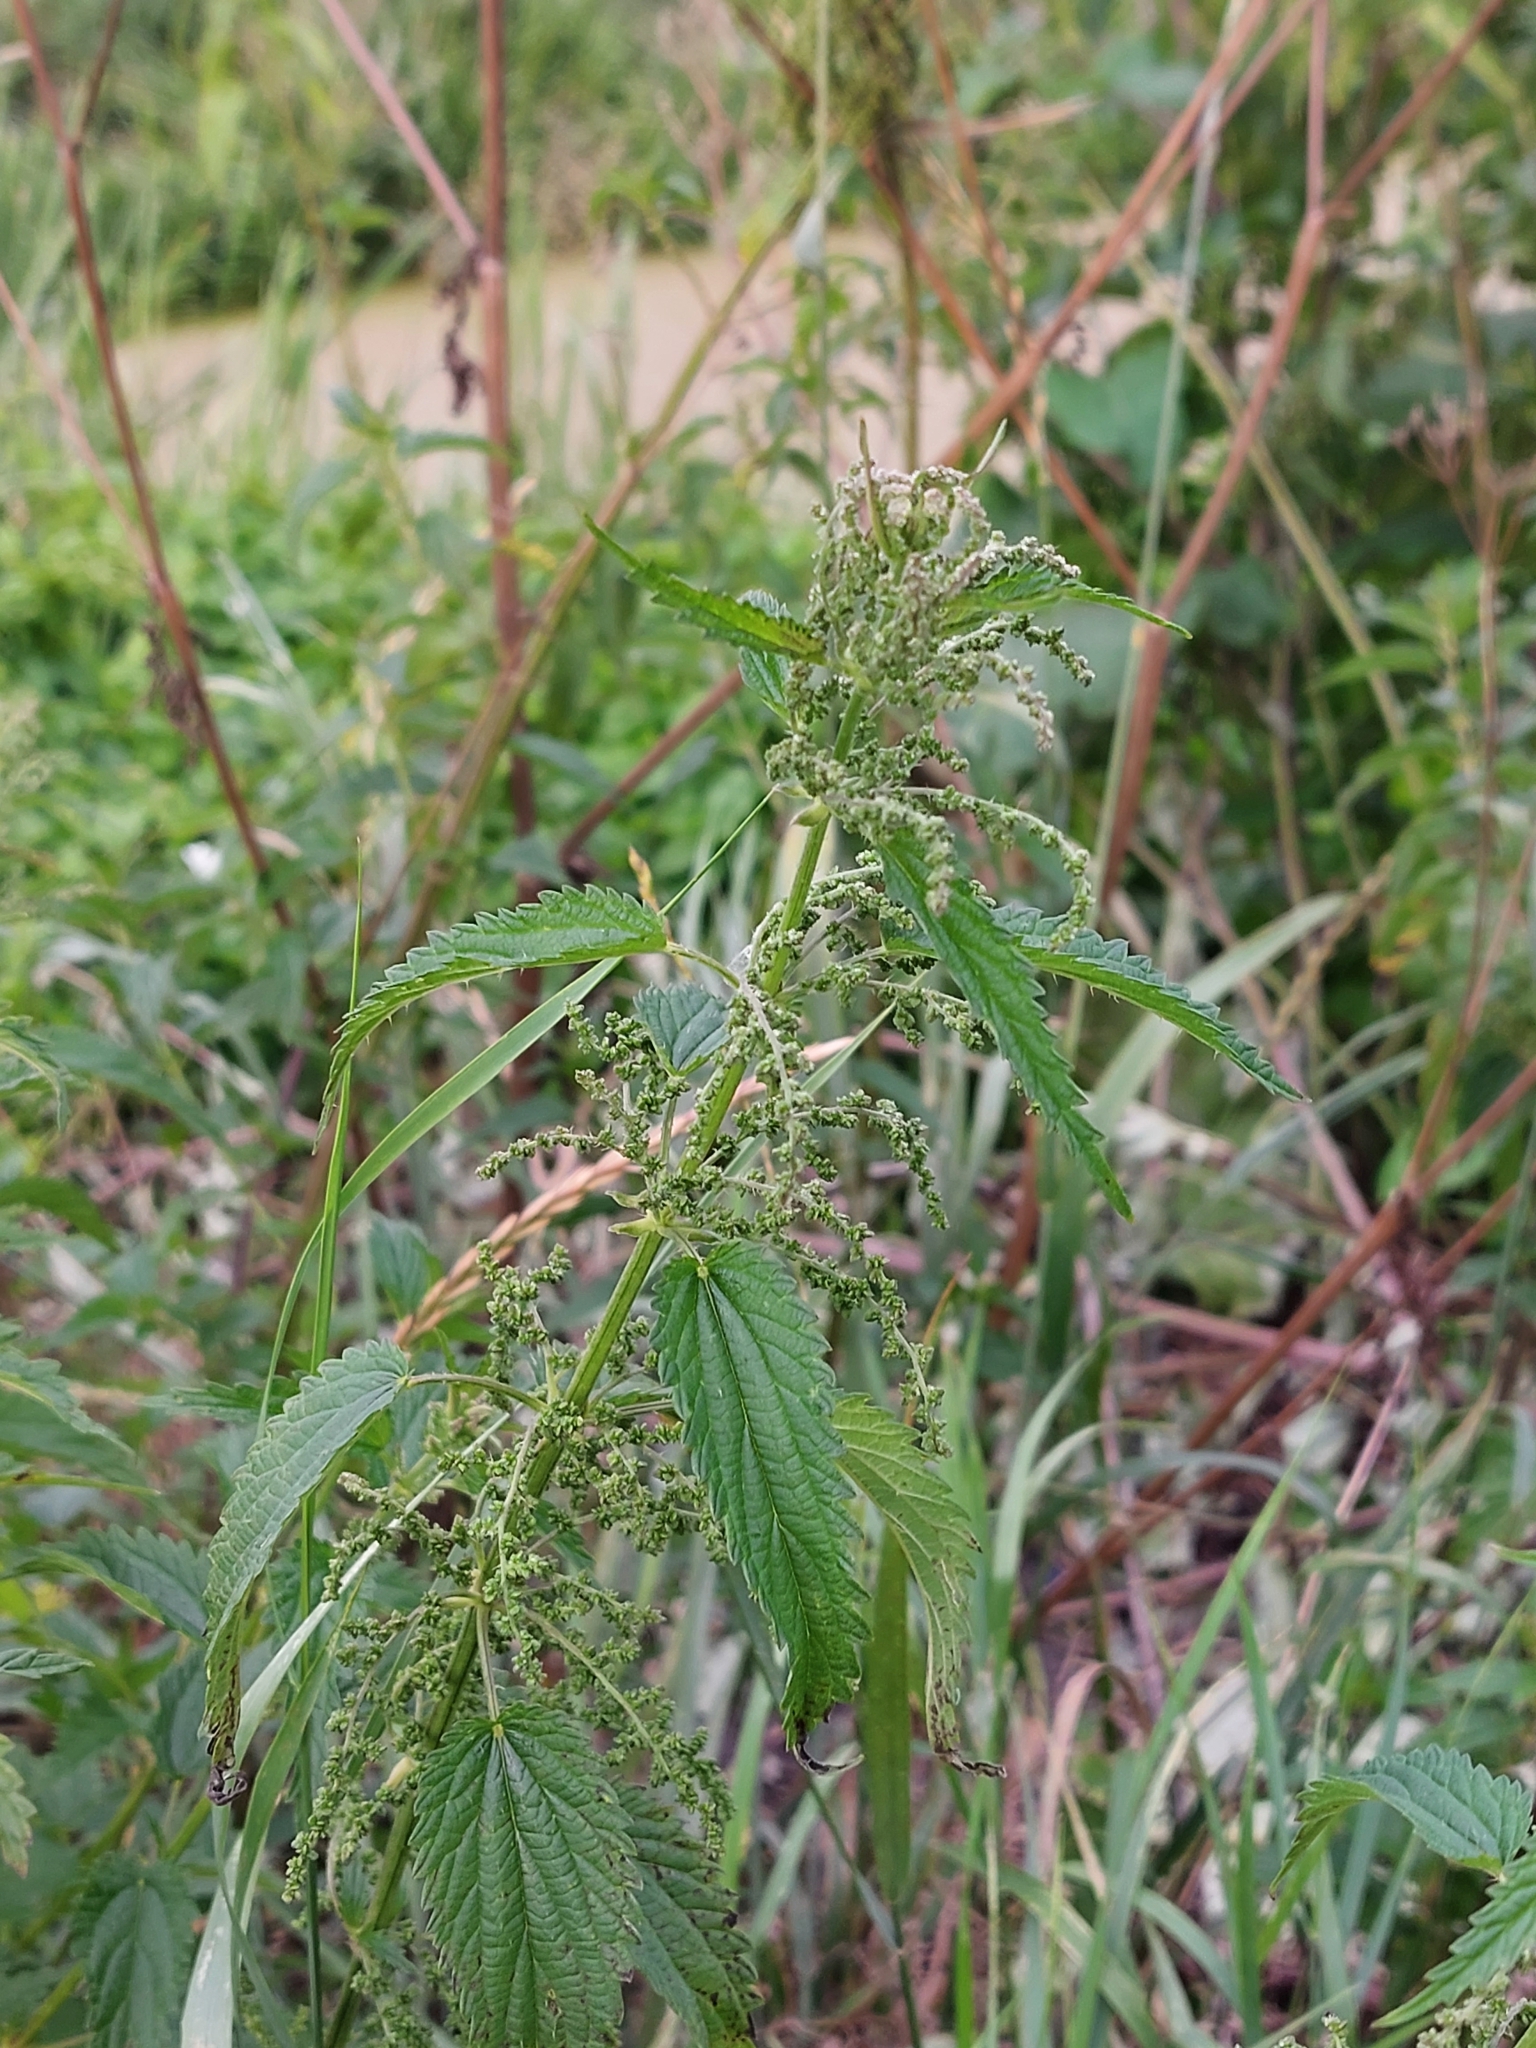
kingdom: Plantae
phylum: Tracheophyta
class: Magnoliopsida
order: Rosales
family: Urticaceae
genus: Urtica
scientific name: Urtica dioica
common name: Common nettle
